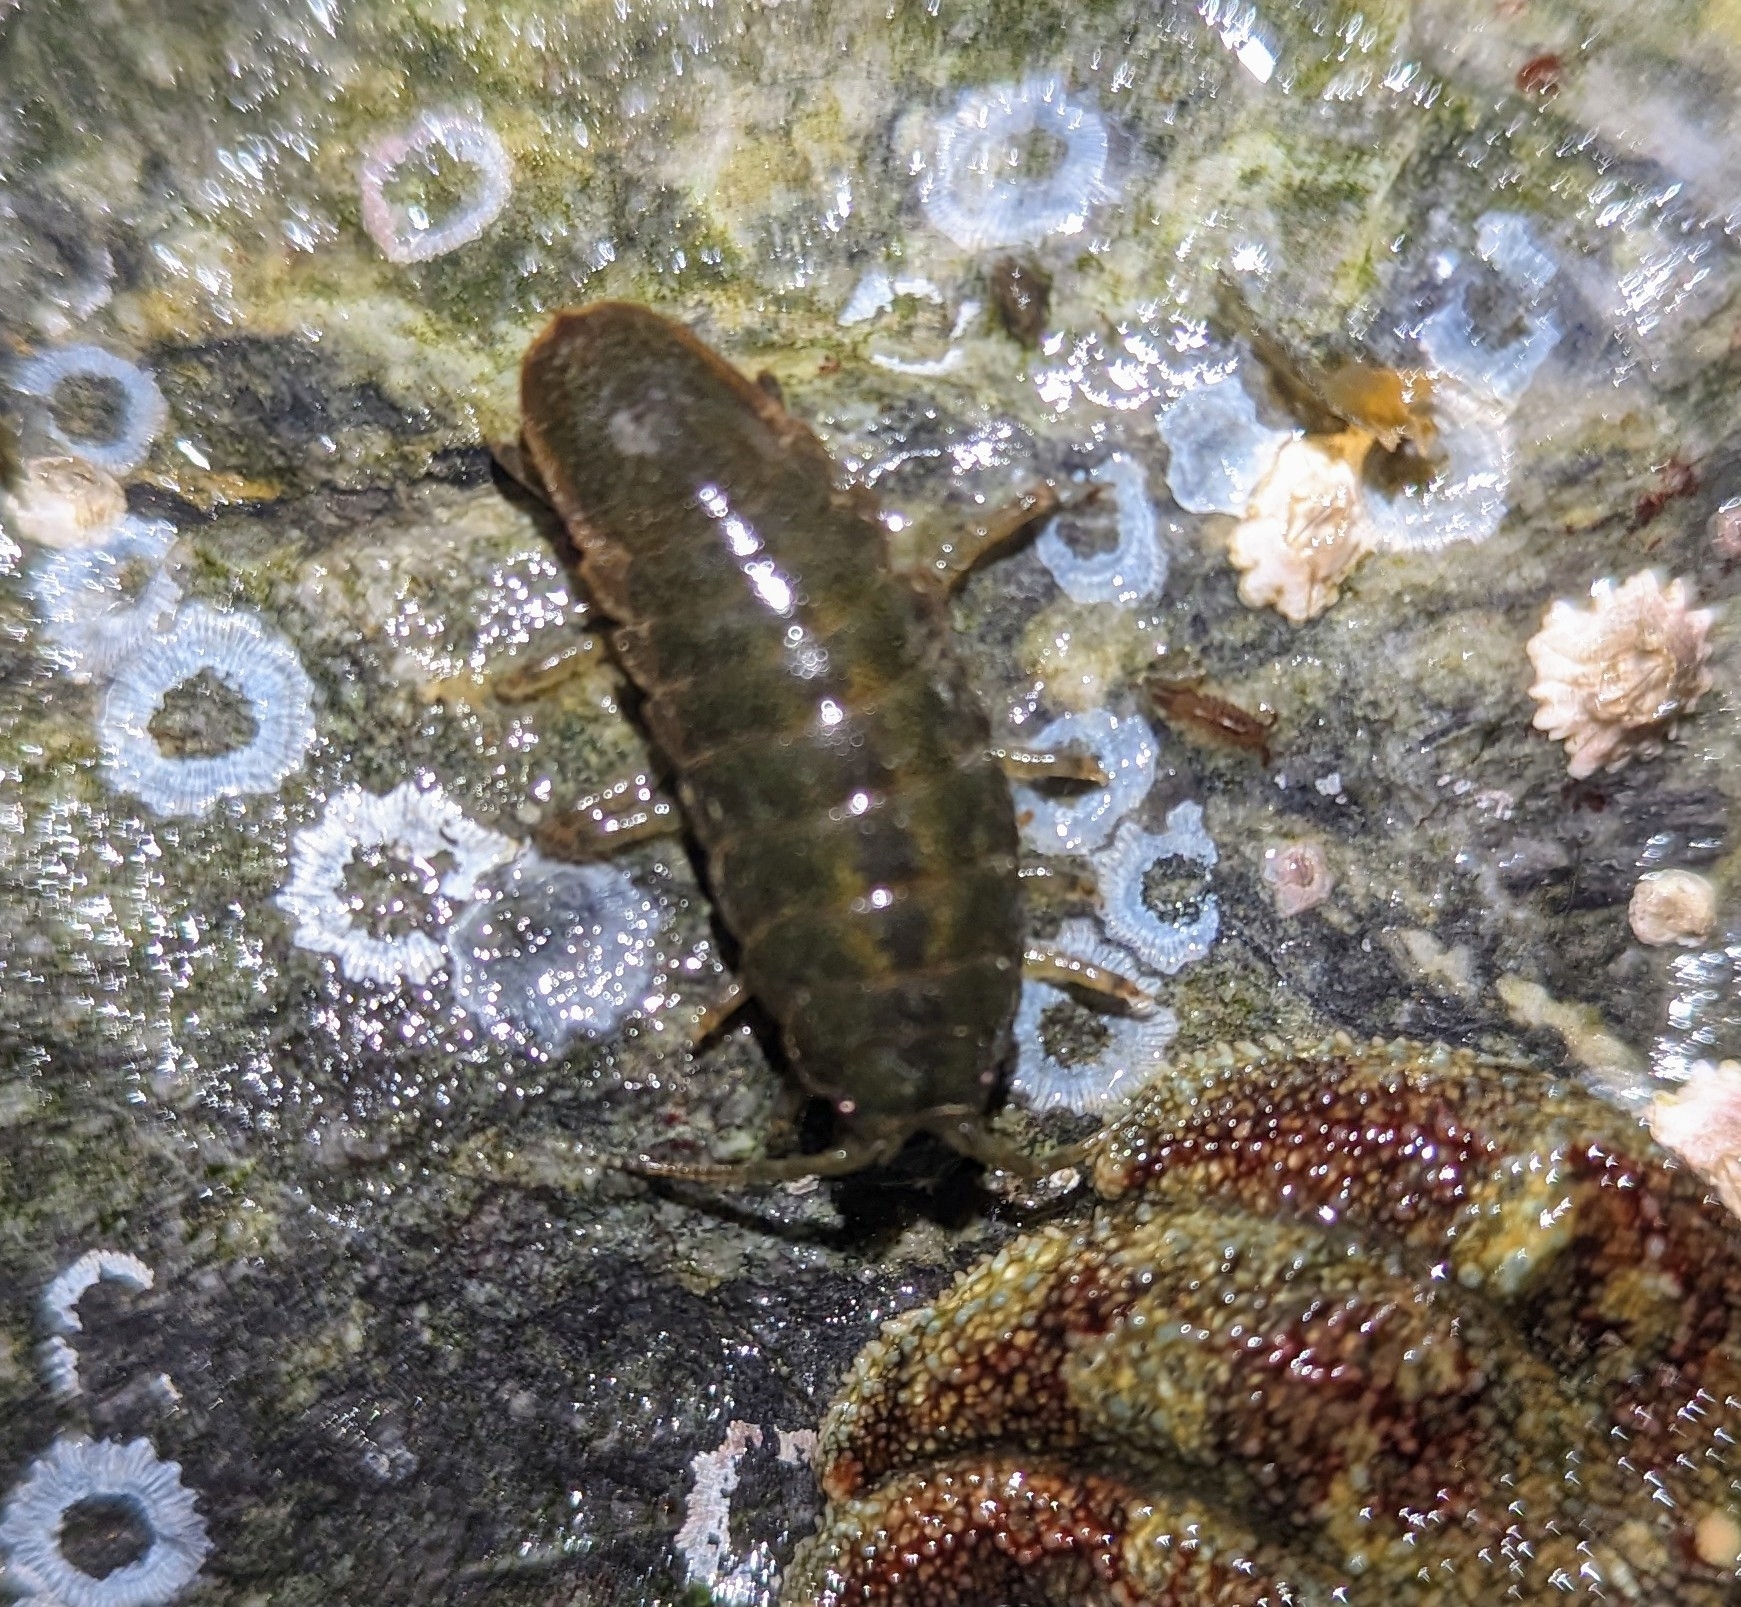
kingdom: Animalia
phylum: Arthropoda
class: Malacostraca
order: Isopoda
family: Idoteidae
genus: Pentidotea
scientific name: Pentidotea wosnesenskii
